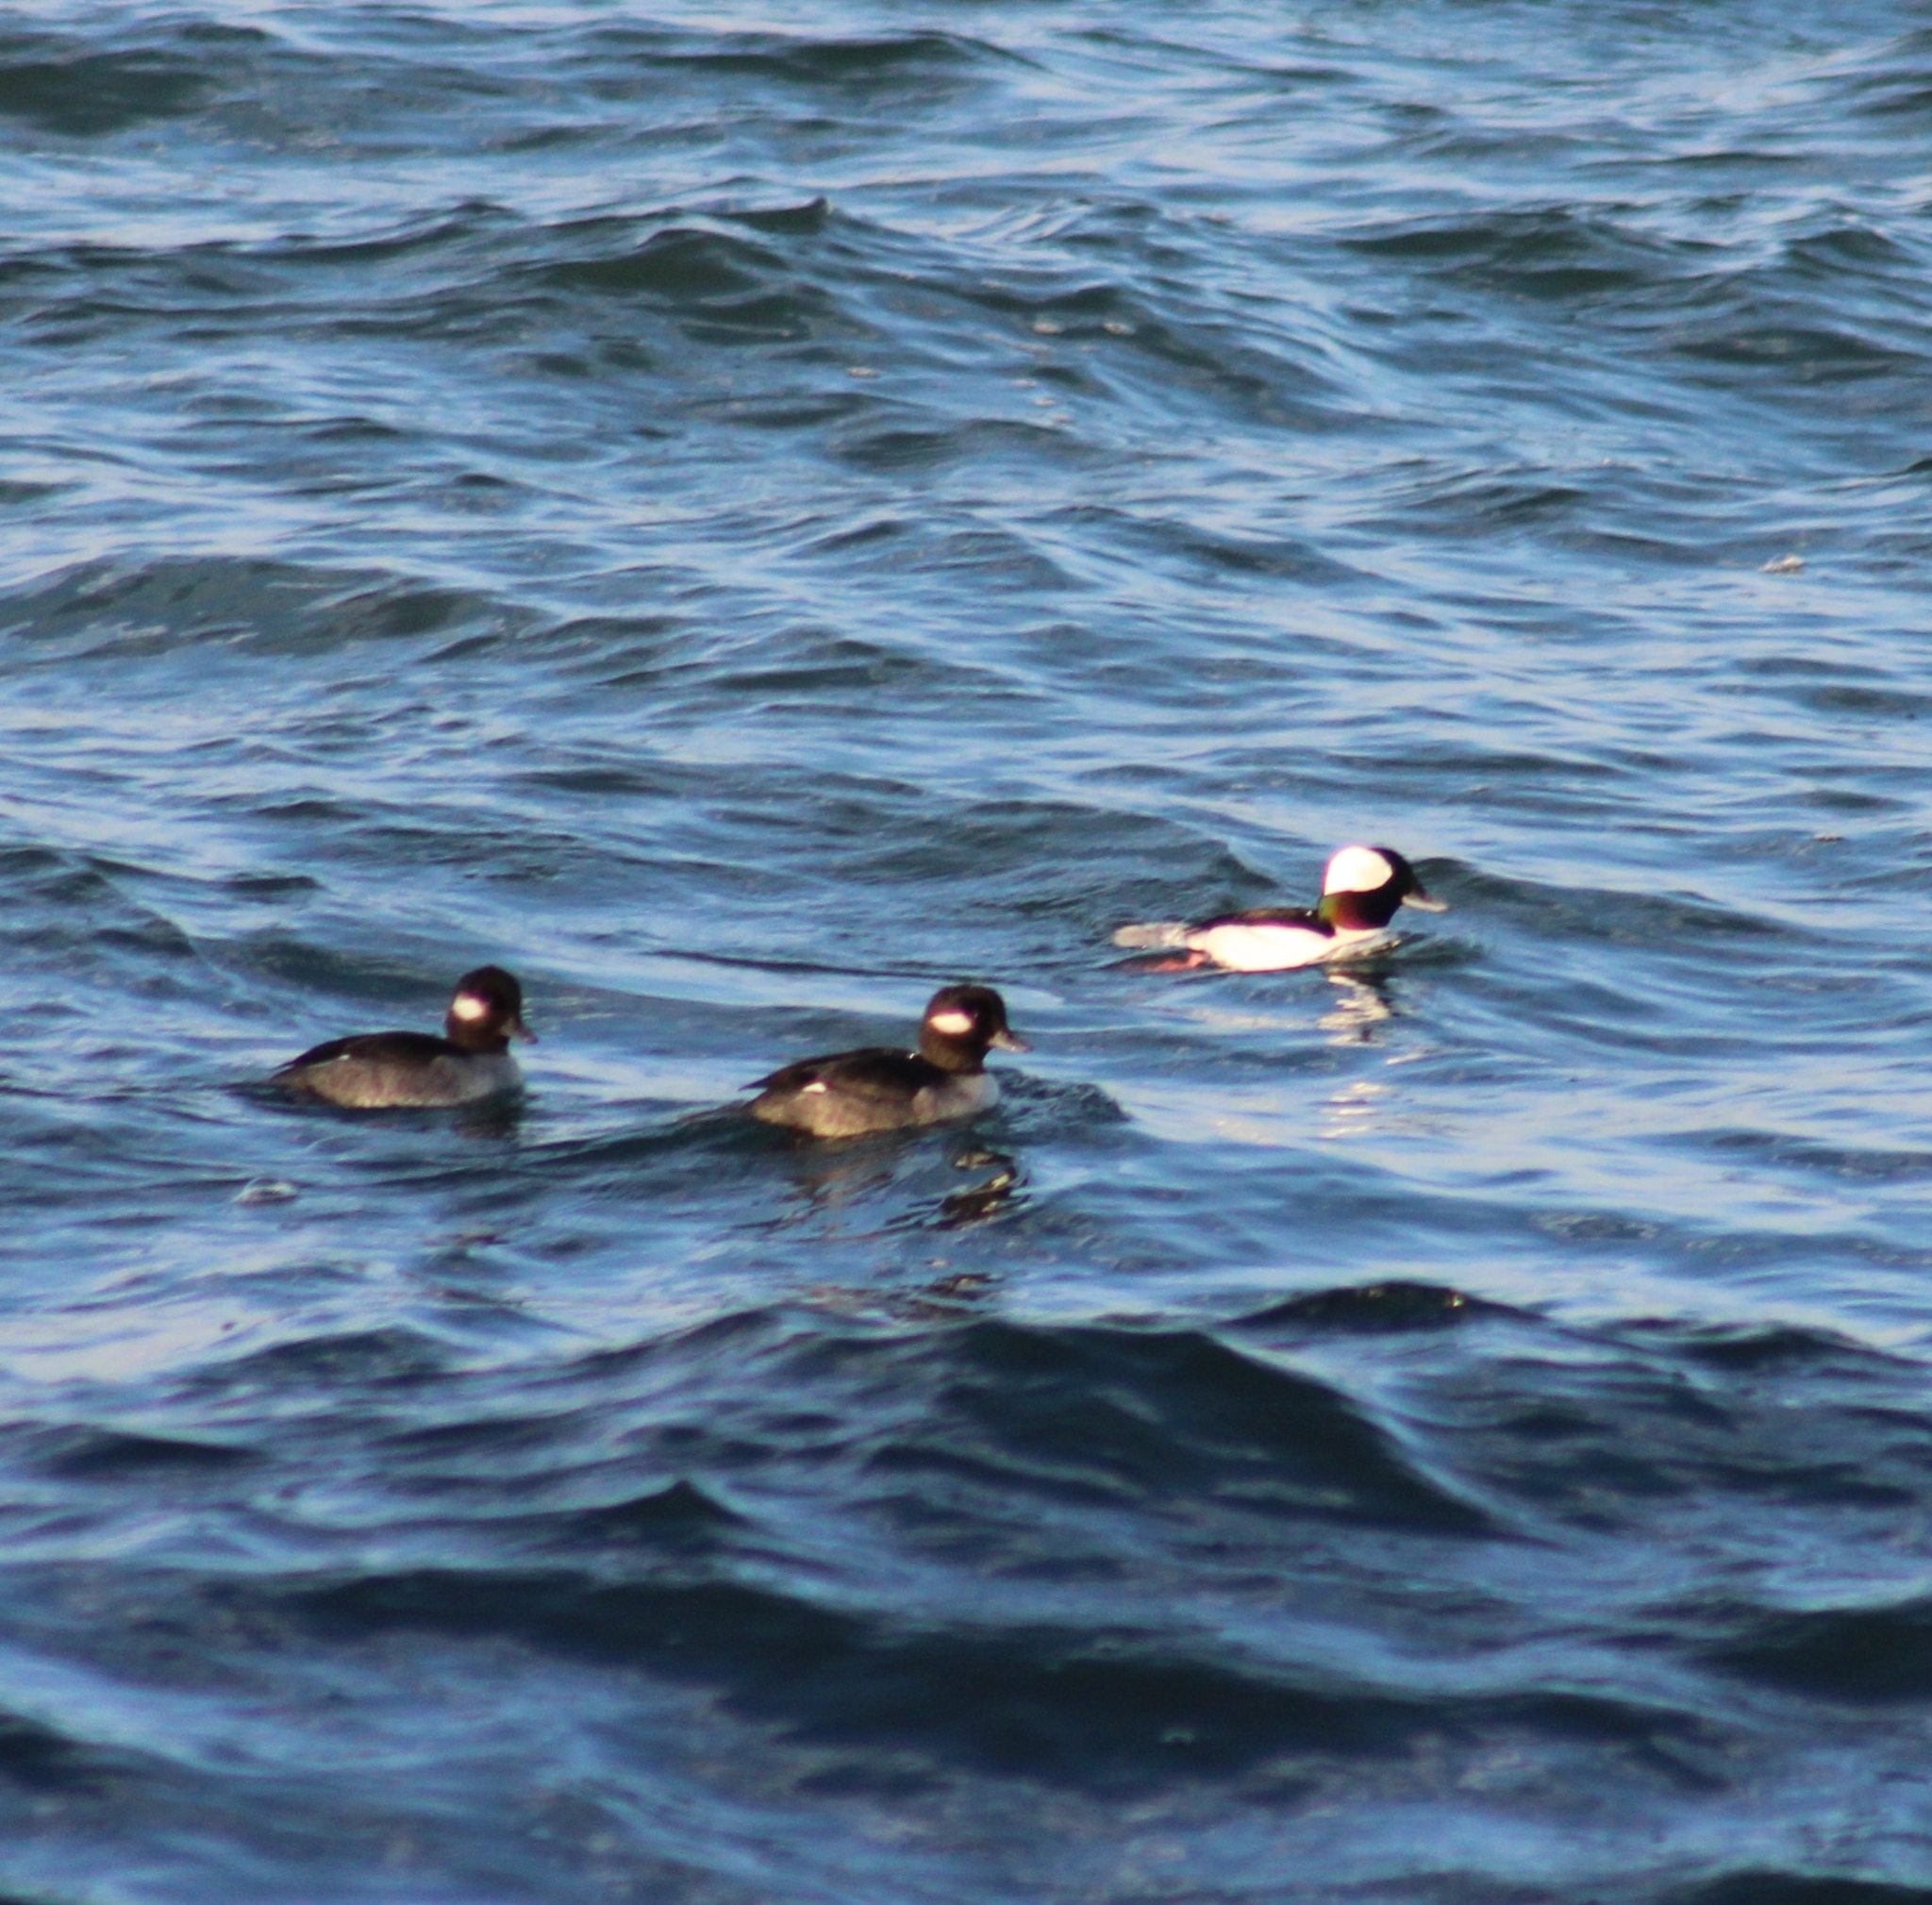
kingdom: Animalia
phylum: Chordata
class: Aves
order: Anseriformes
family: Anatidae
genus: Bucephala
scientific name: Bucephala albeola
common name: Bufflehead
